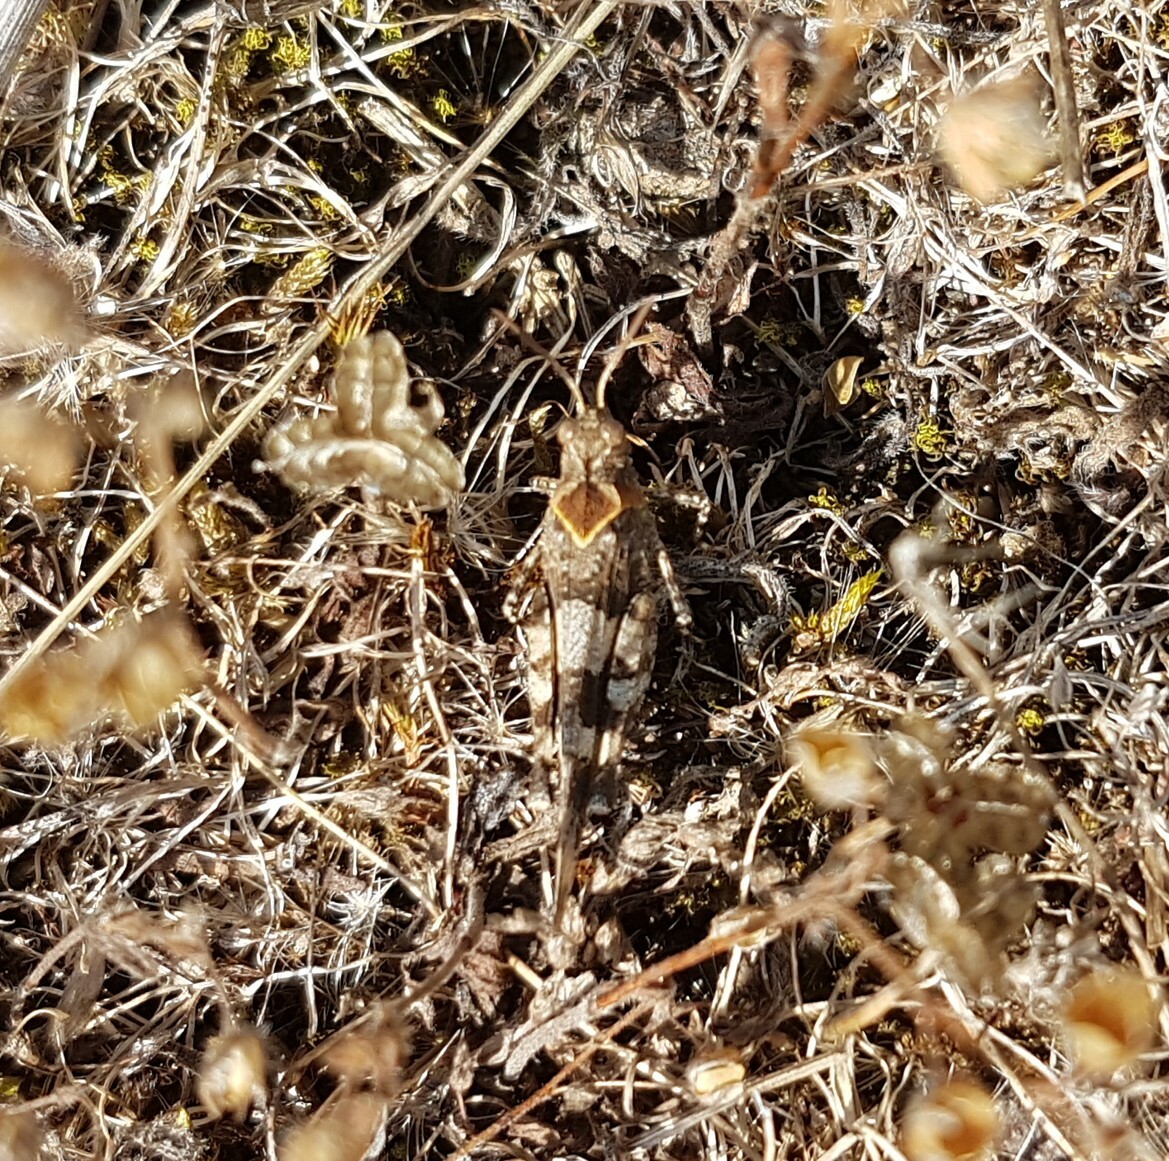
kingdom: Animalia
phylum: Arthropoda
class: Insecta
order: Orthoptera
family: Acrididae
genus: Oedipoda
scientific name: Oedipoda caerulescens
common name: Blue-winged grasshopper
